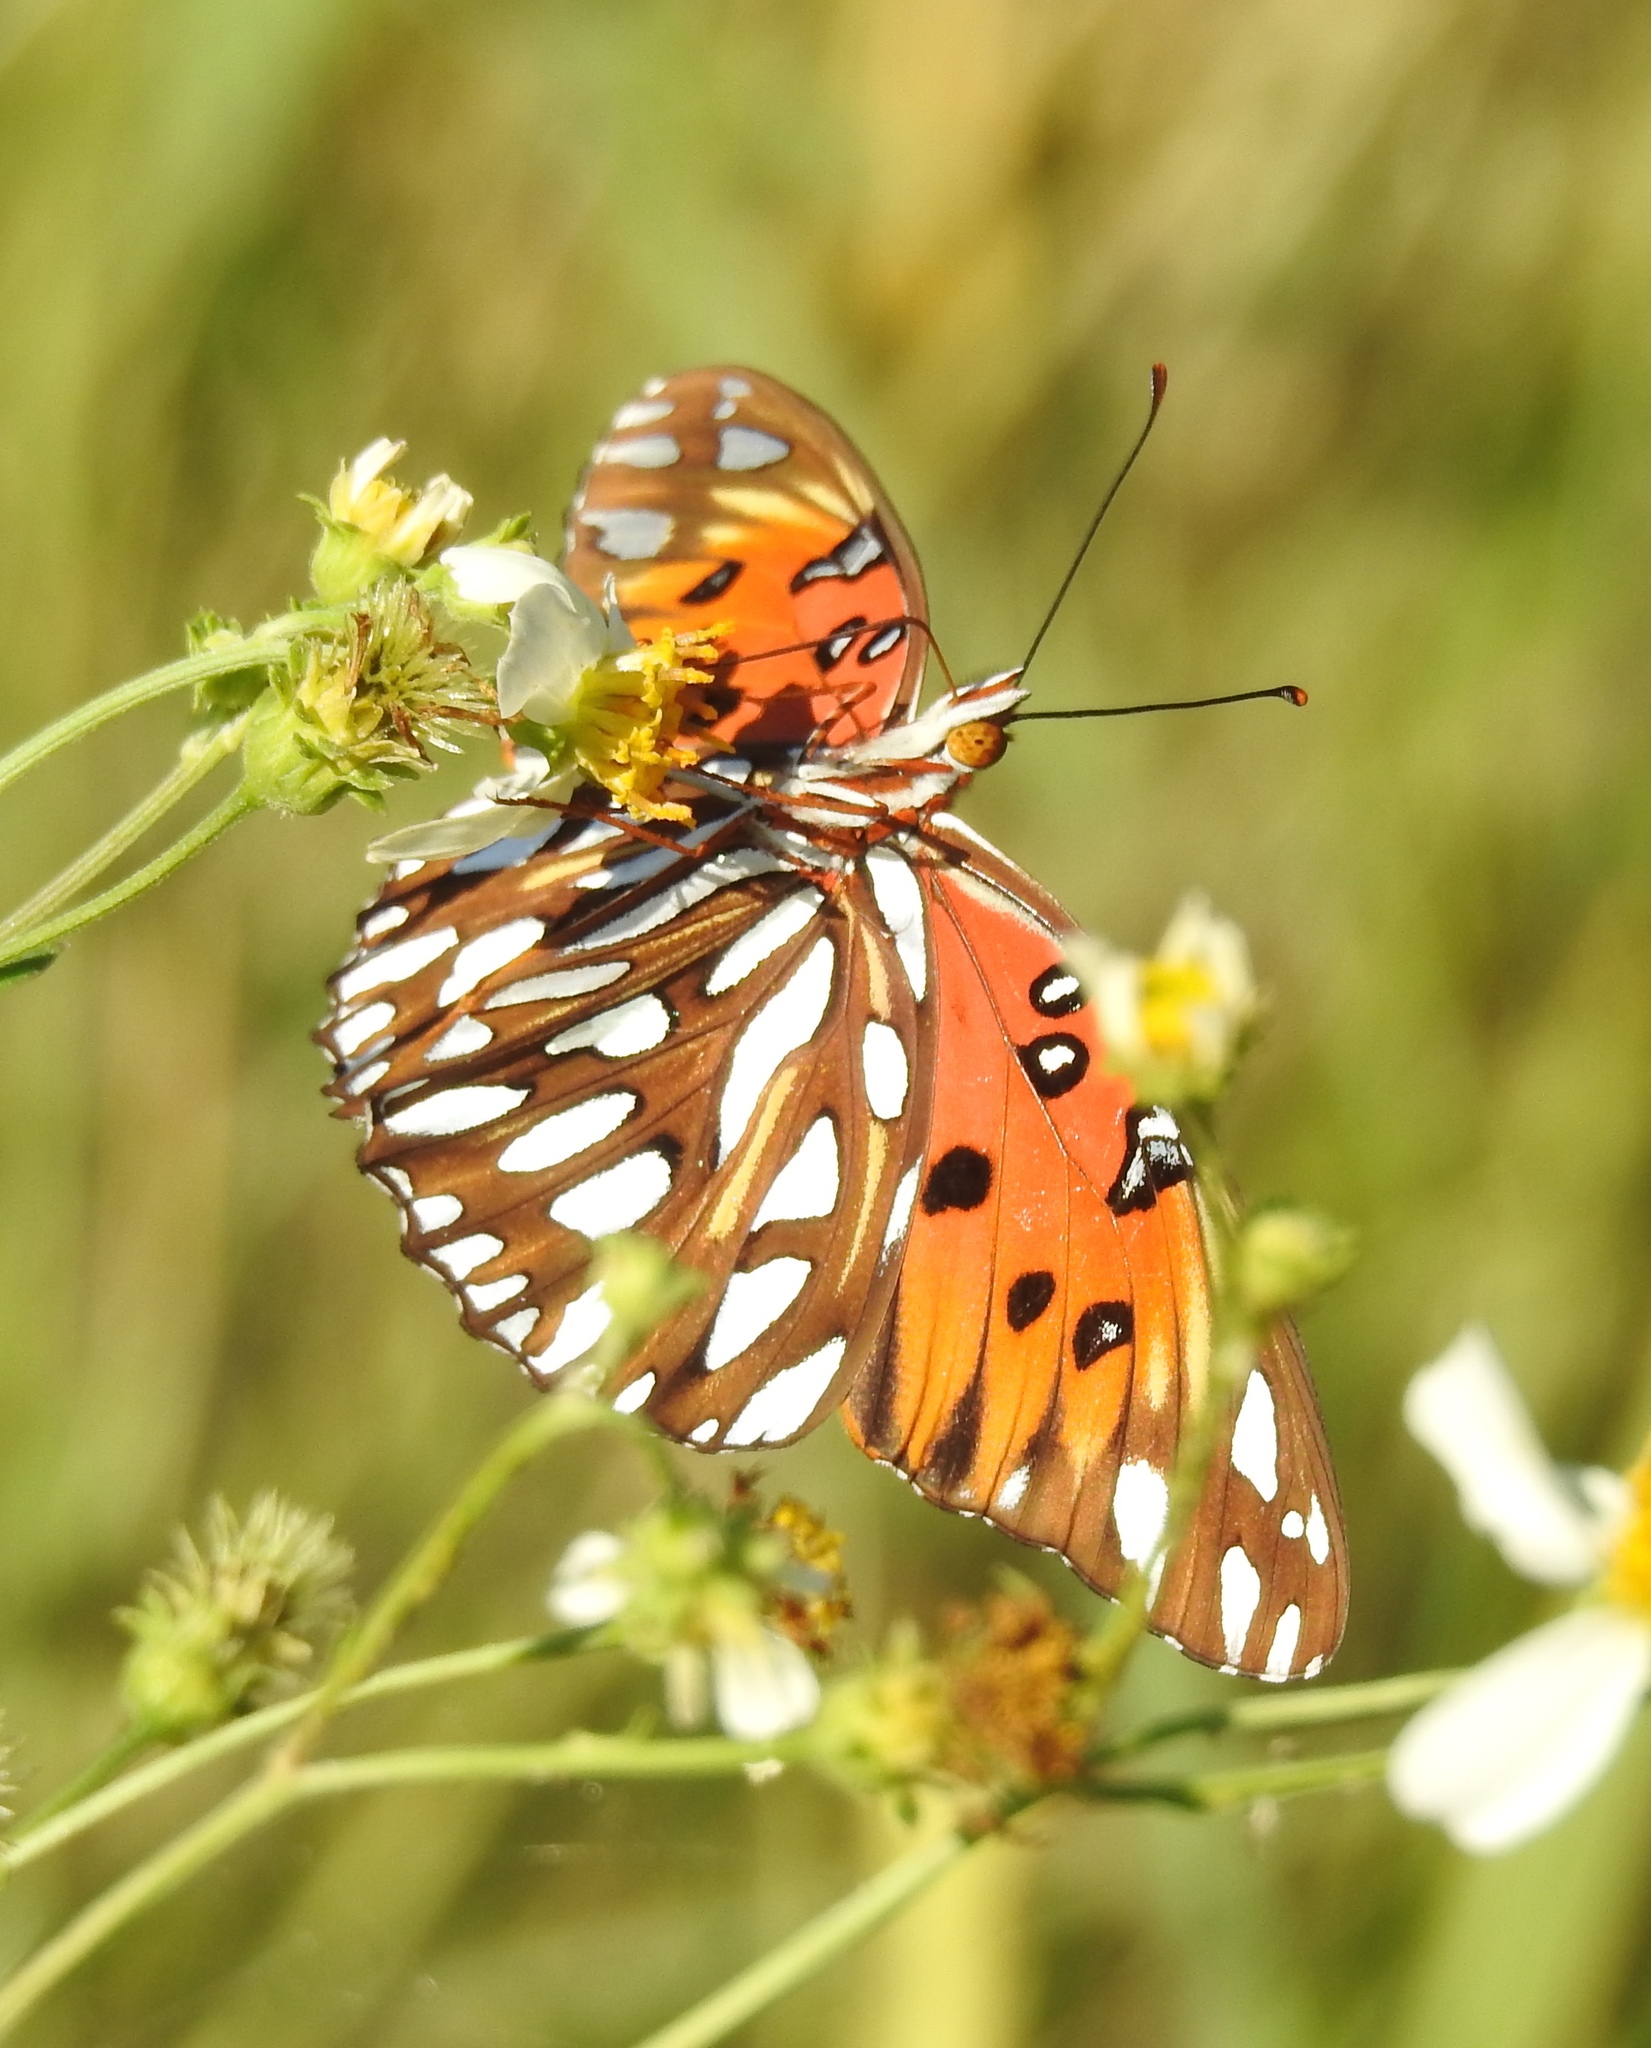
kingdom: Animalia
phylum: Arthropoda
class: Insecta
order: Lepidoptera
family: Nymphalidae
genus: Dione
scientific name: Dione vanillae
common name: Gulf fritillary
